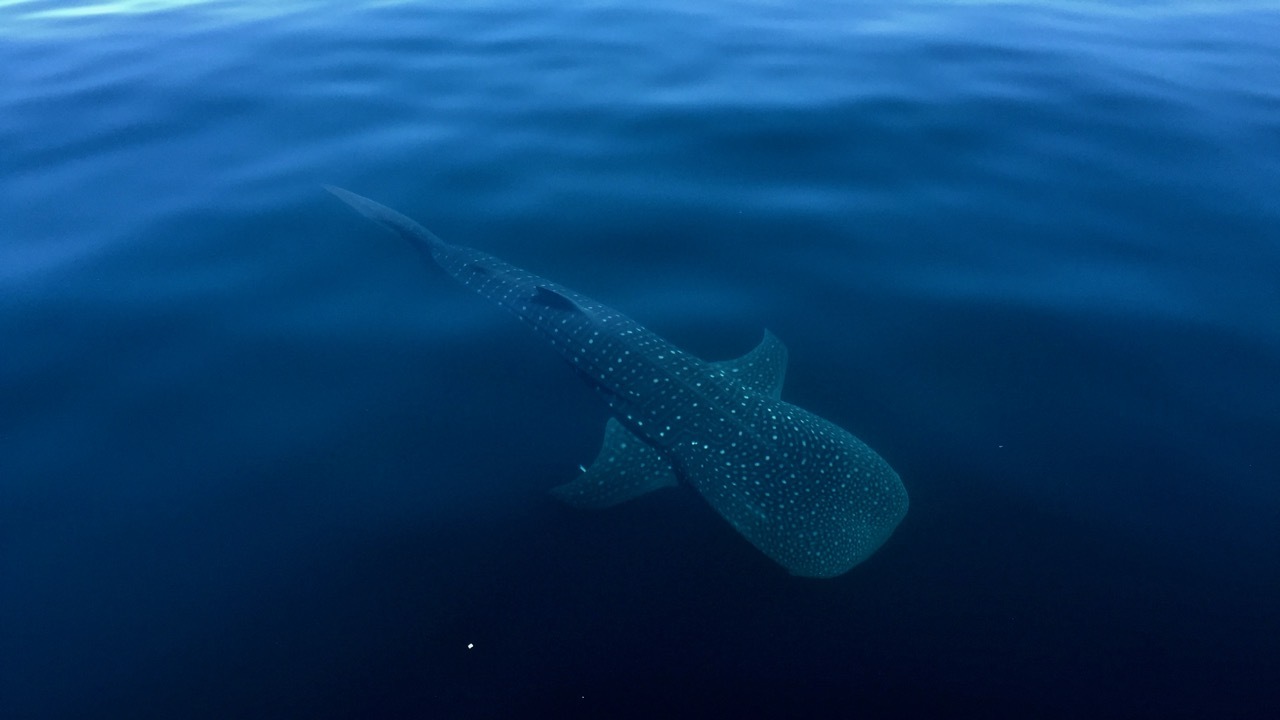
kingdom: Animalia
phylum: Chordata
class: Elasmobranchii
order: Orectolobiformes
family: Rhincodontidae
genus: Rhincodon
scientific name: Rhincodon typus
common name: Whale shark
